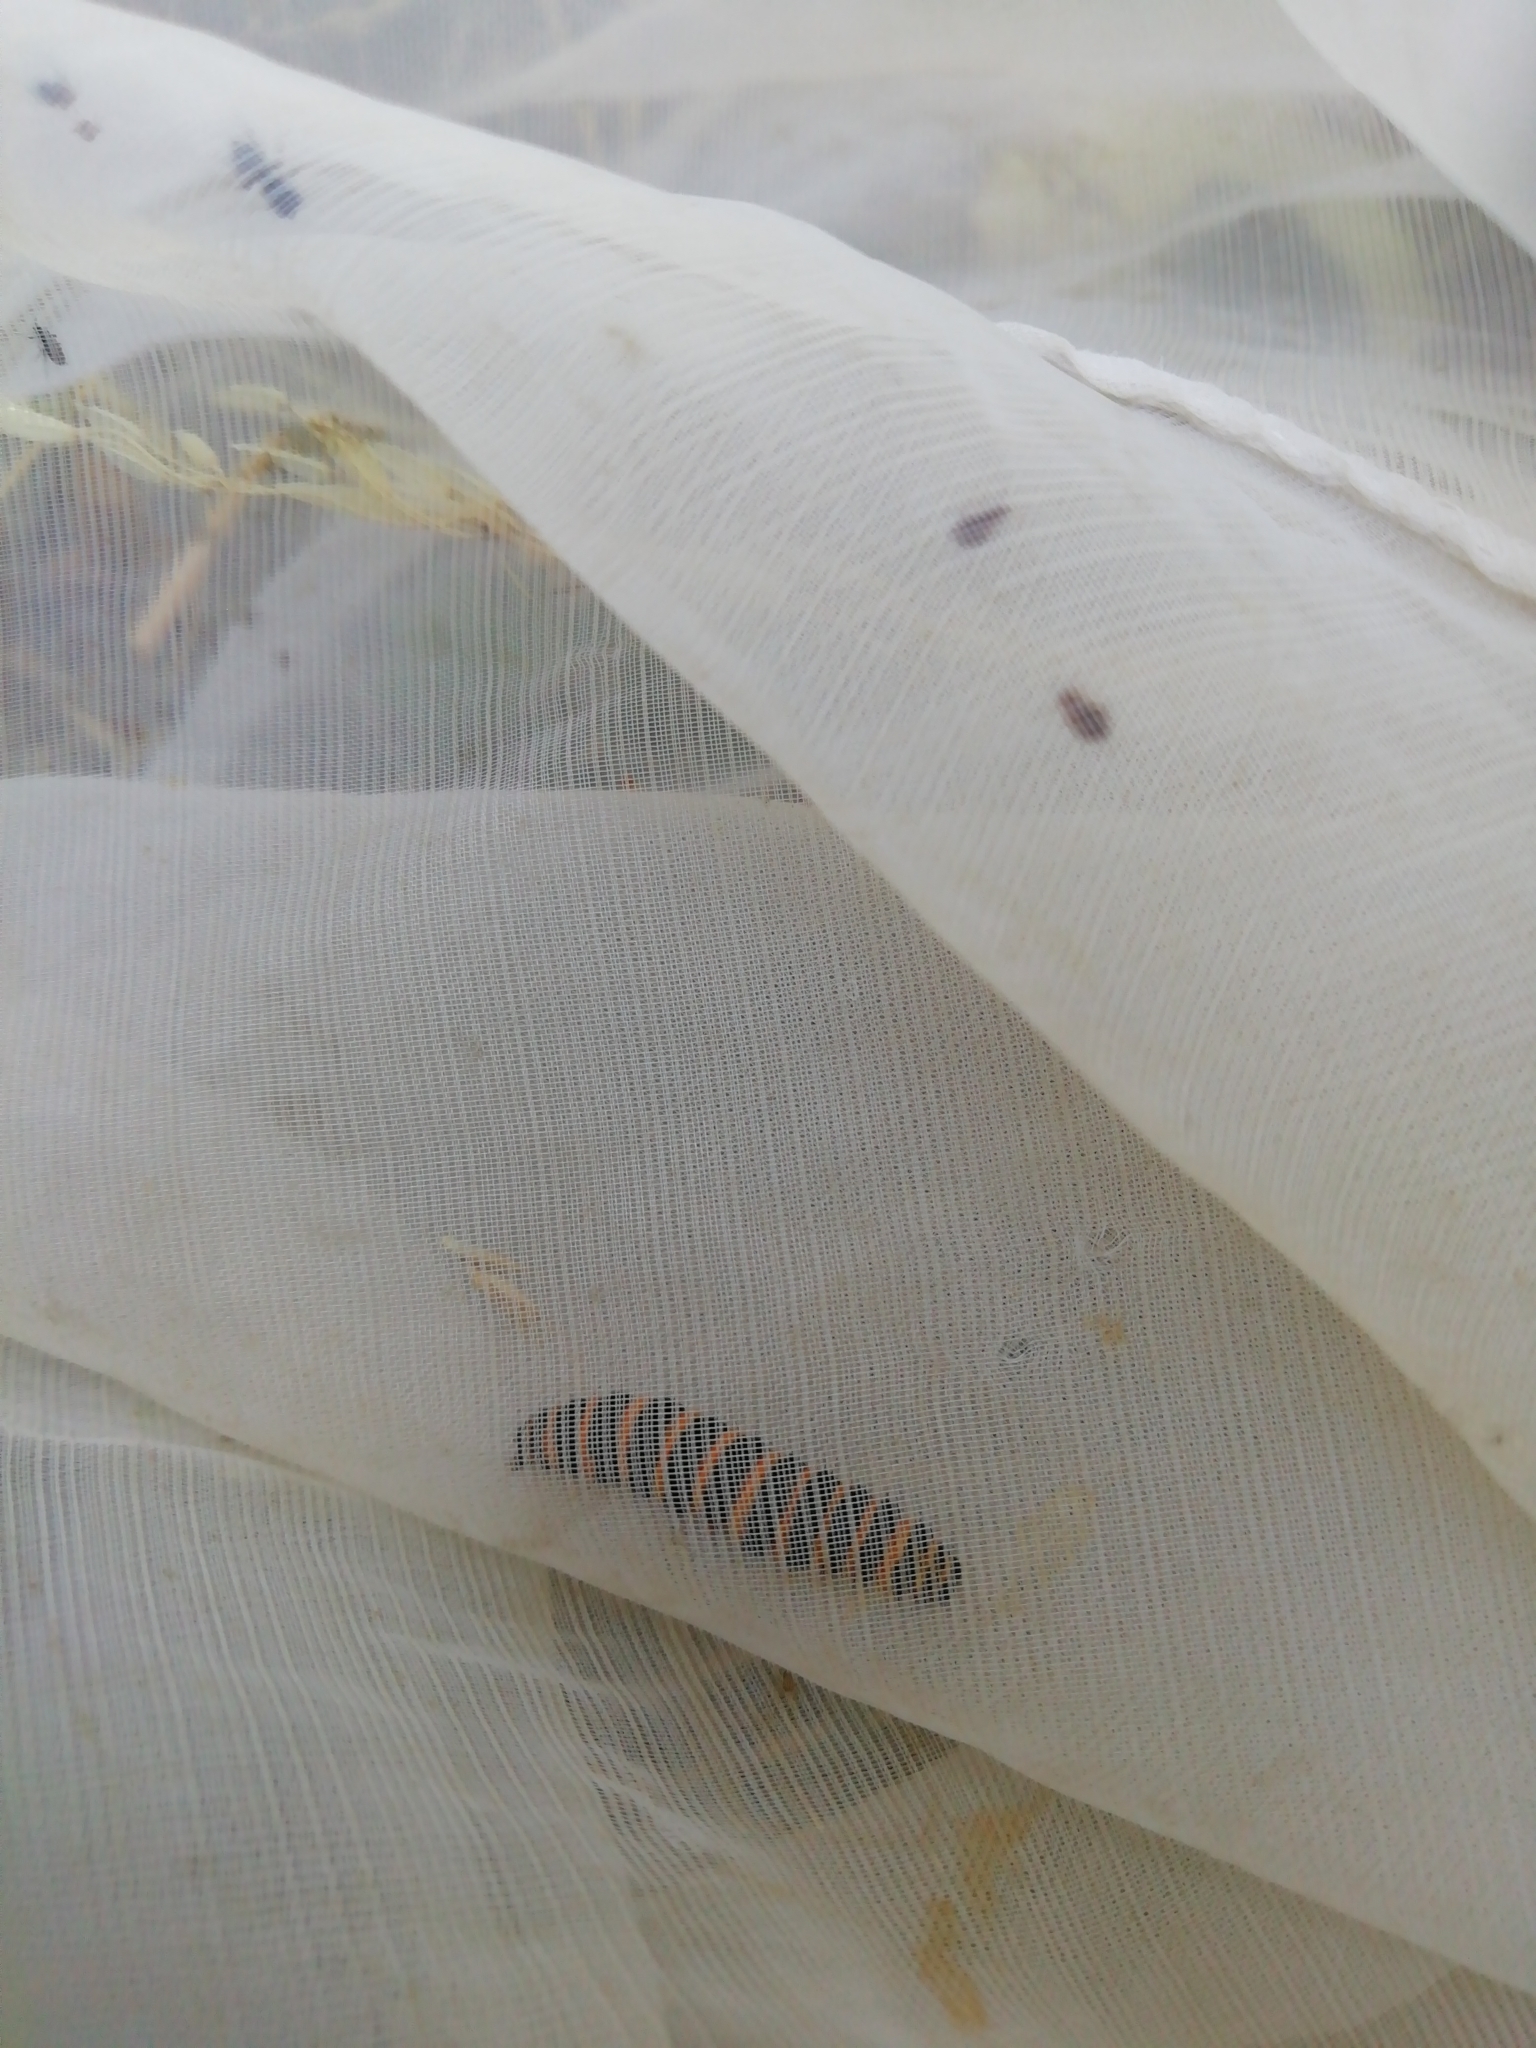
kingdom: Animalia
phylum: Arthropoda
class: Insecta
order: Lepidoptera
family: Erebidae
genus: Tyria
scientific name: Tyria jacobaeae
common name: Cinnabar
